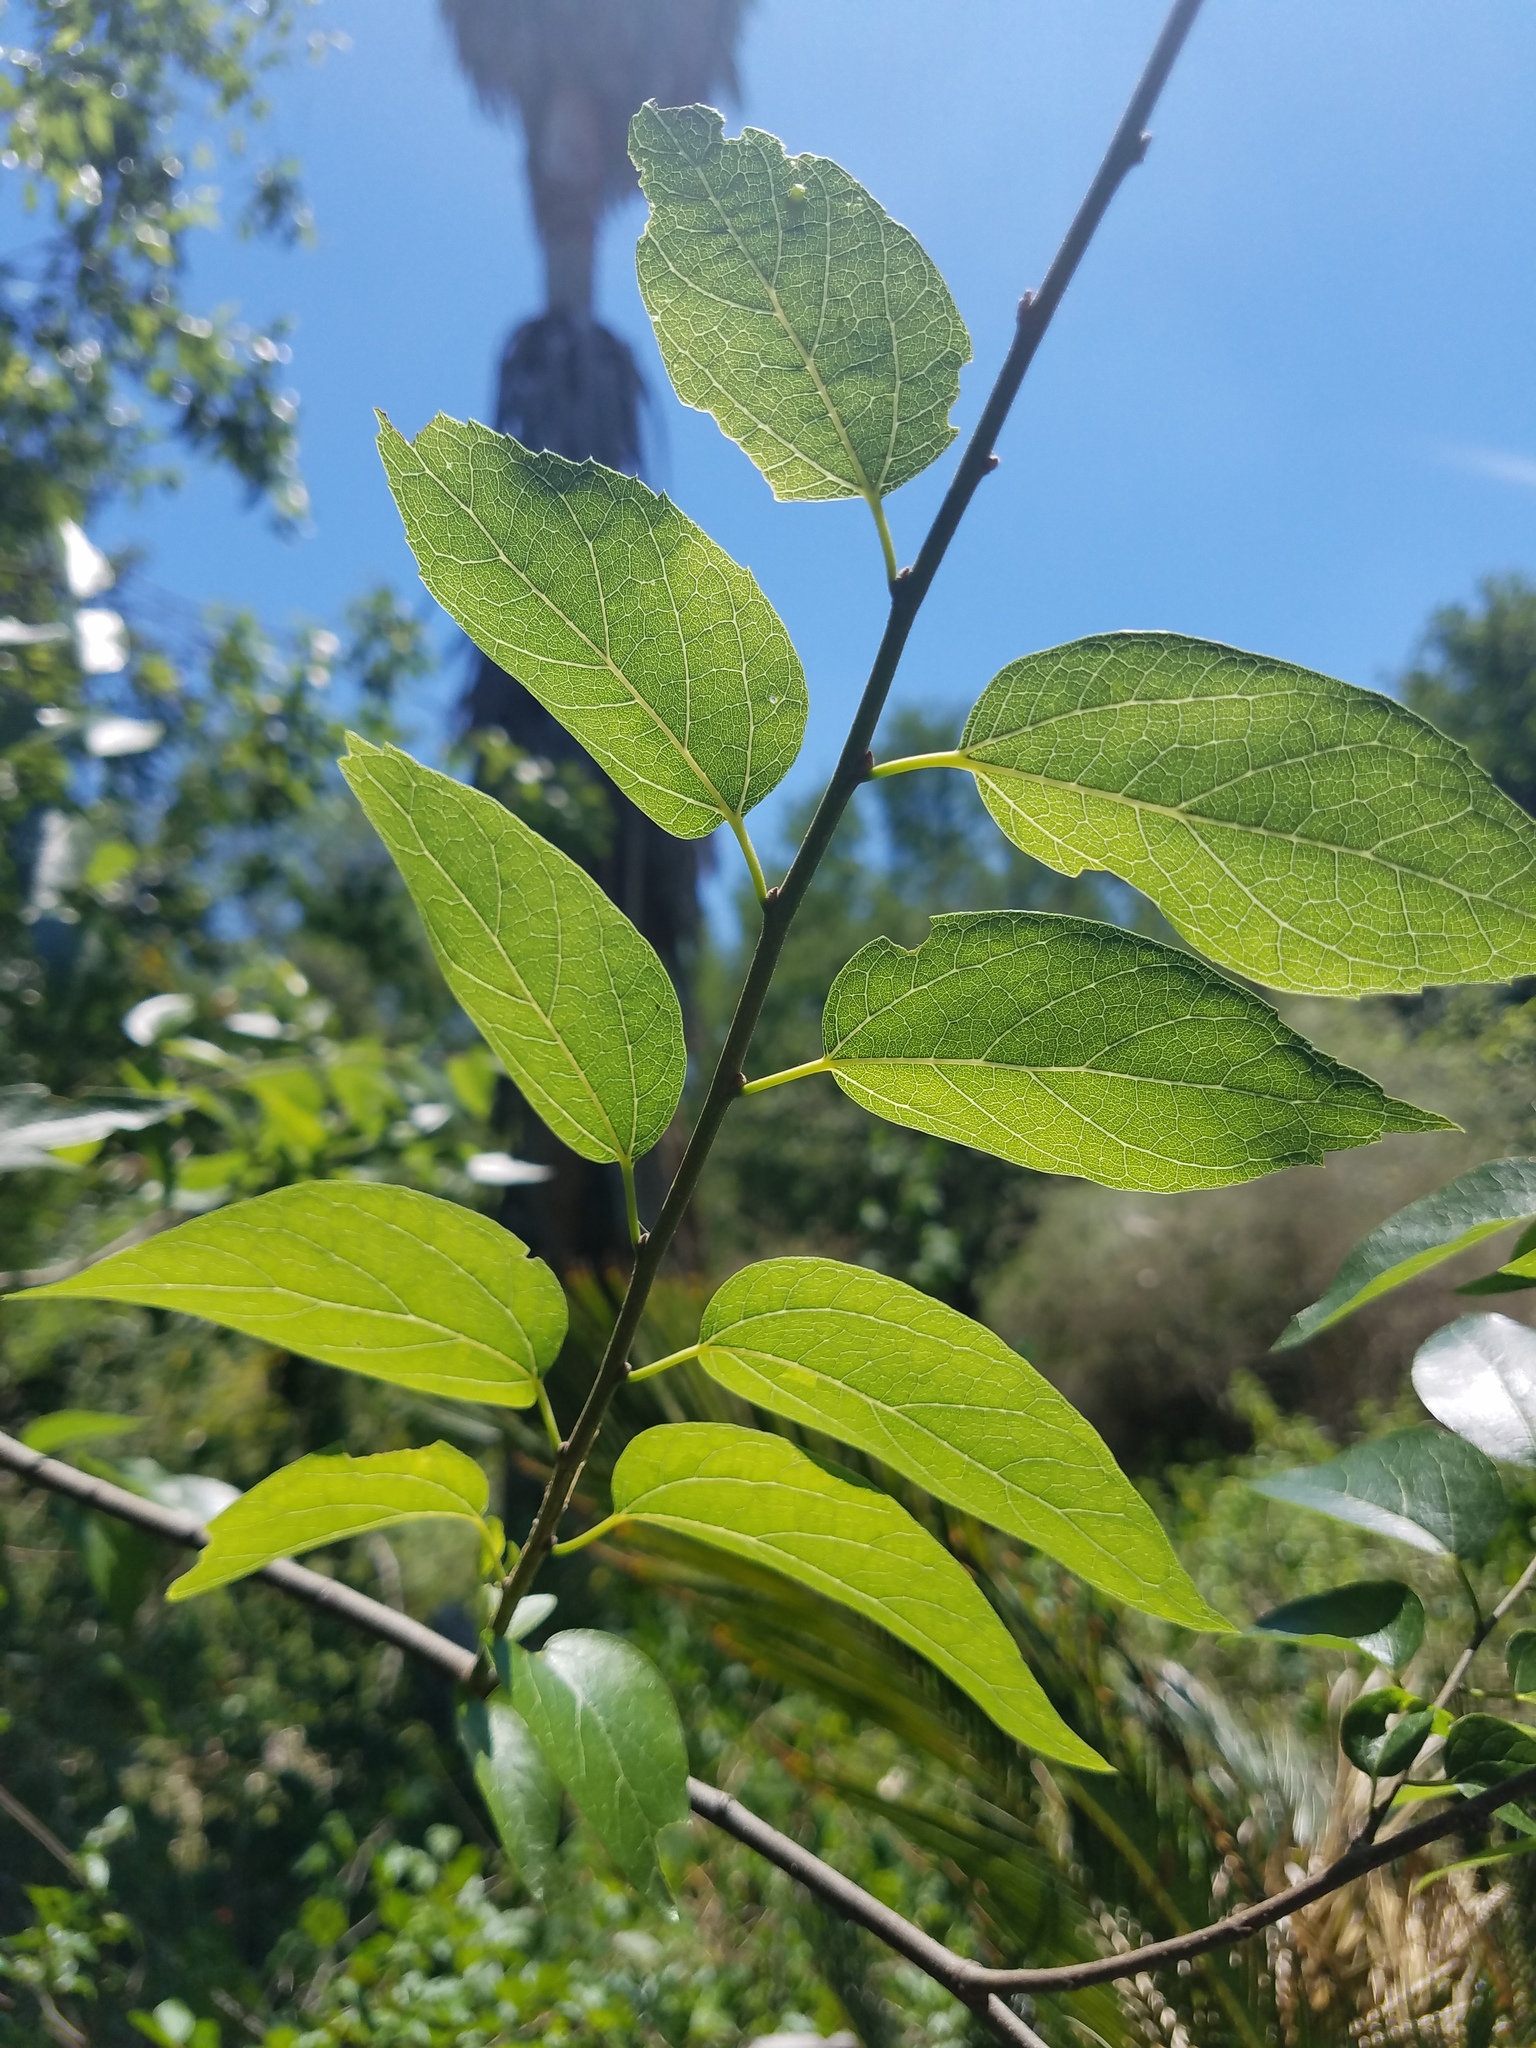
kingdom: Plantae
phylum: Tracheophyta
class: Magnoliopsida
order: Rosales
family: Cannabaceae
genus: Celtis
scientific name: Celtis laevigata
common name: Sugarberry
